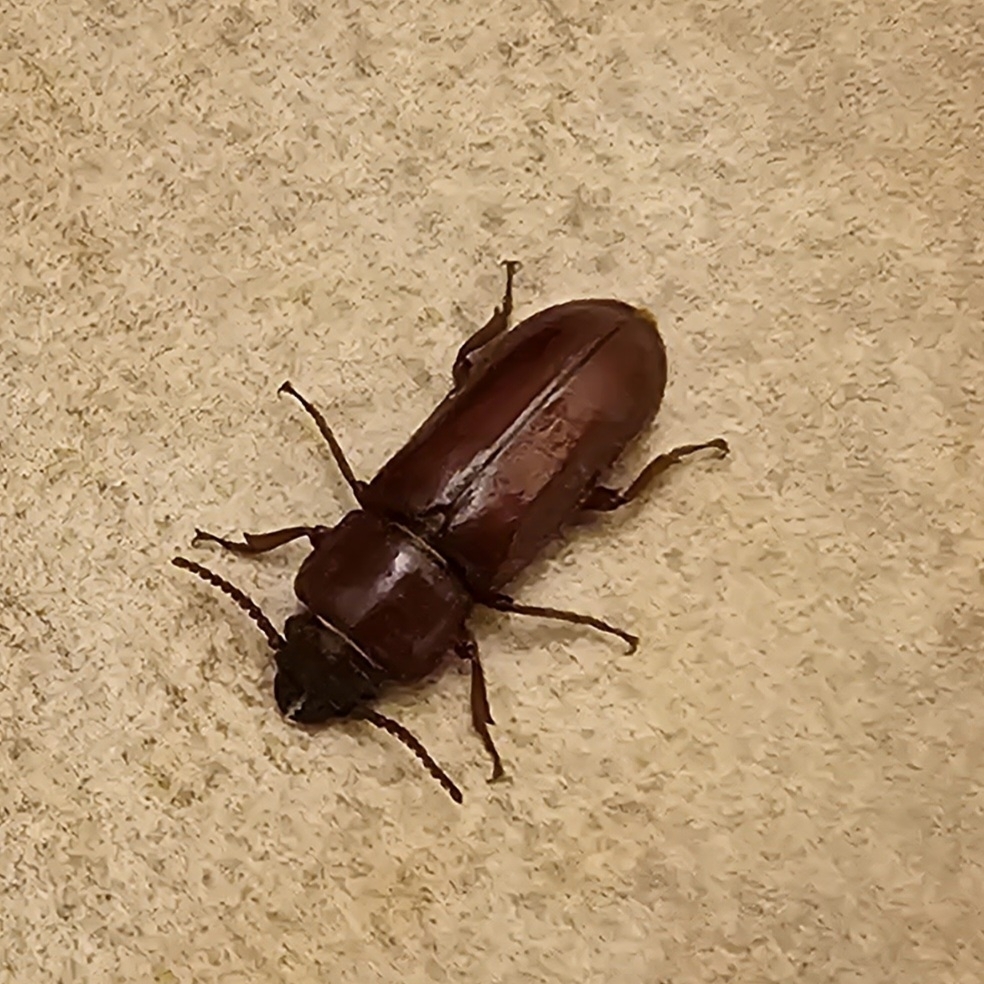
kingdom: Animalia
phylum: Arthropoda
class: Insecta
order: Coleoptera
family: Cerambycidae
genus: Neandra
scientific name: Neandra brunnea
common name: Pole borer
